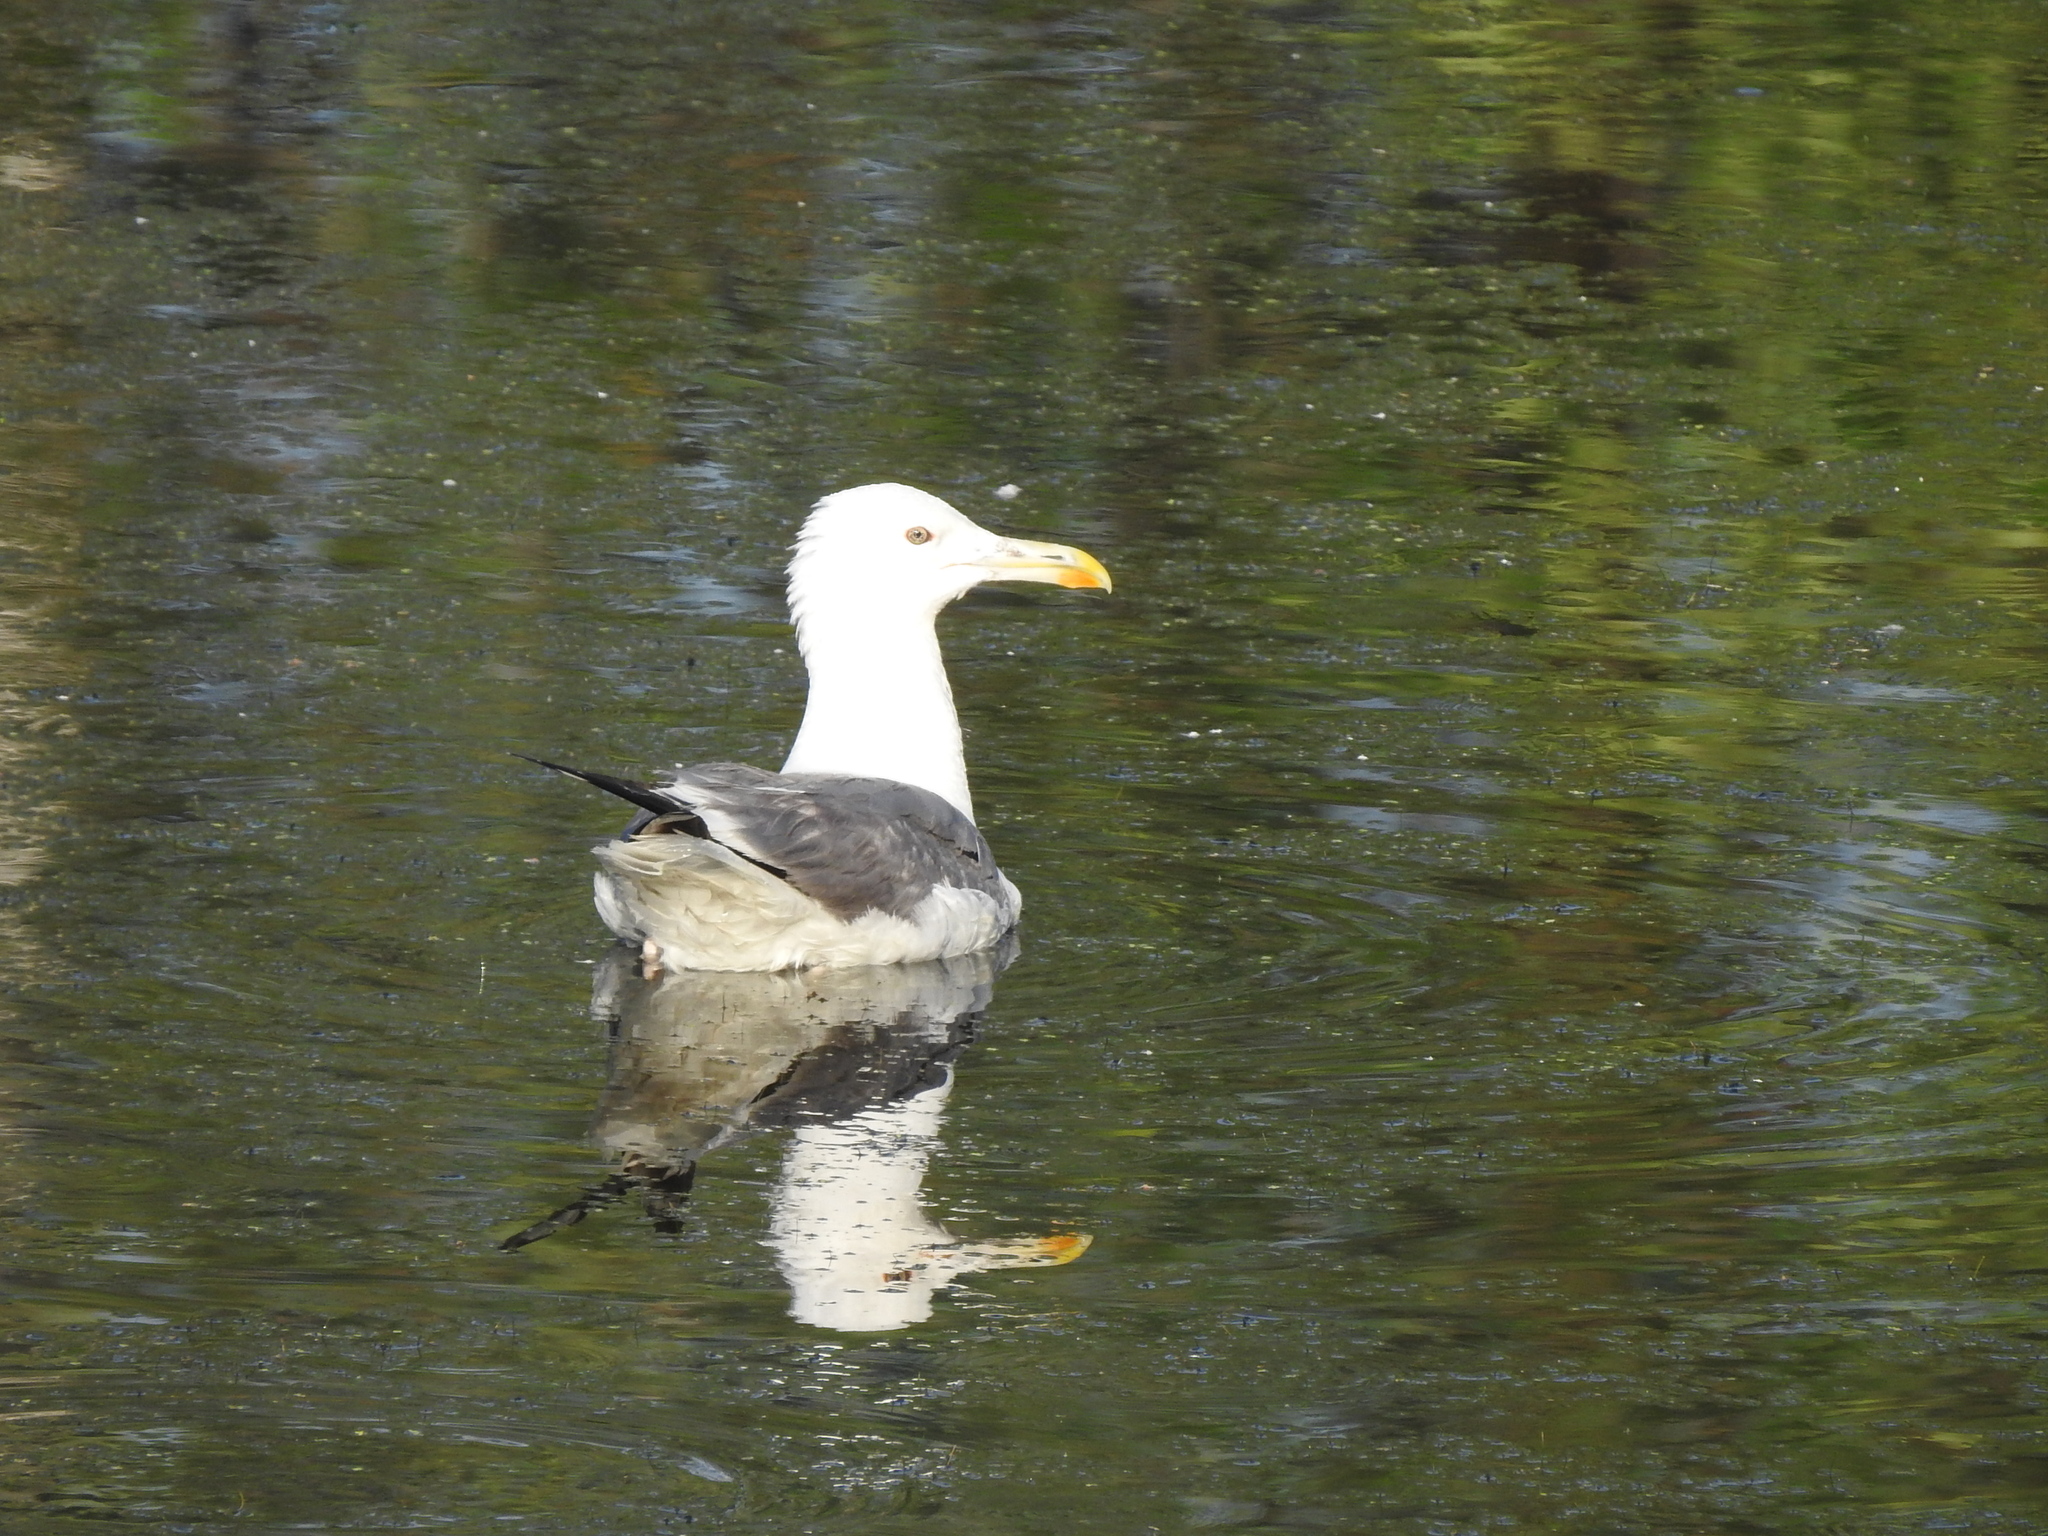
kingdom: Animalia
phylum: Chordata
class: Aves
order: Charadriiformes
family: Laridae
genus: Larus
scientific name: Larus fuscus
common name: Lesser black-backed gull
